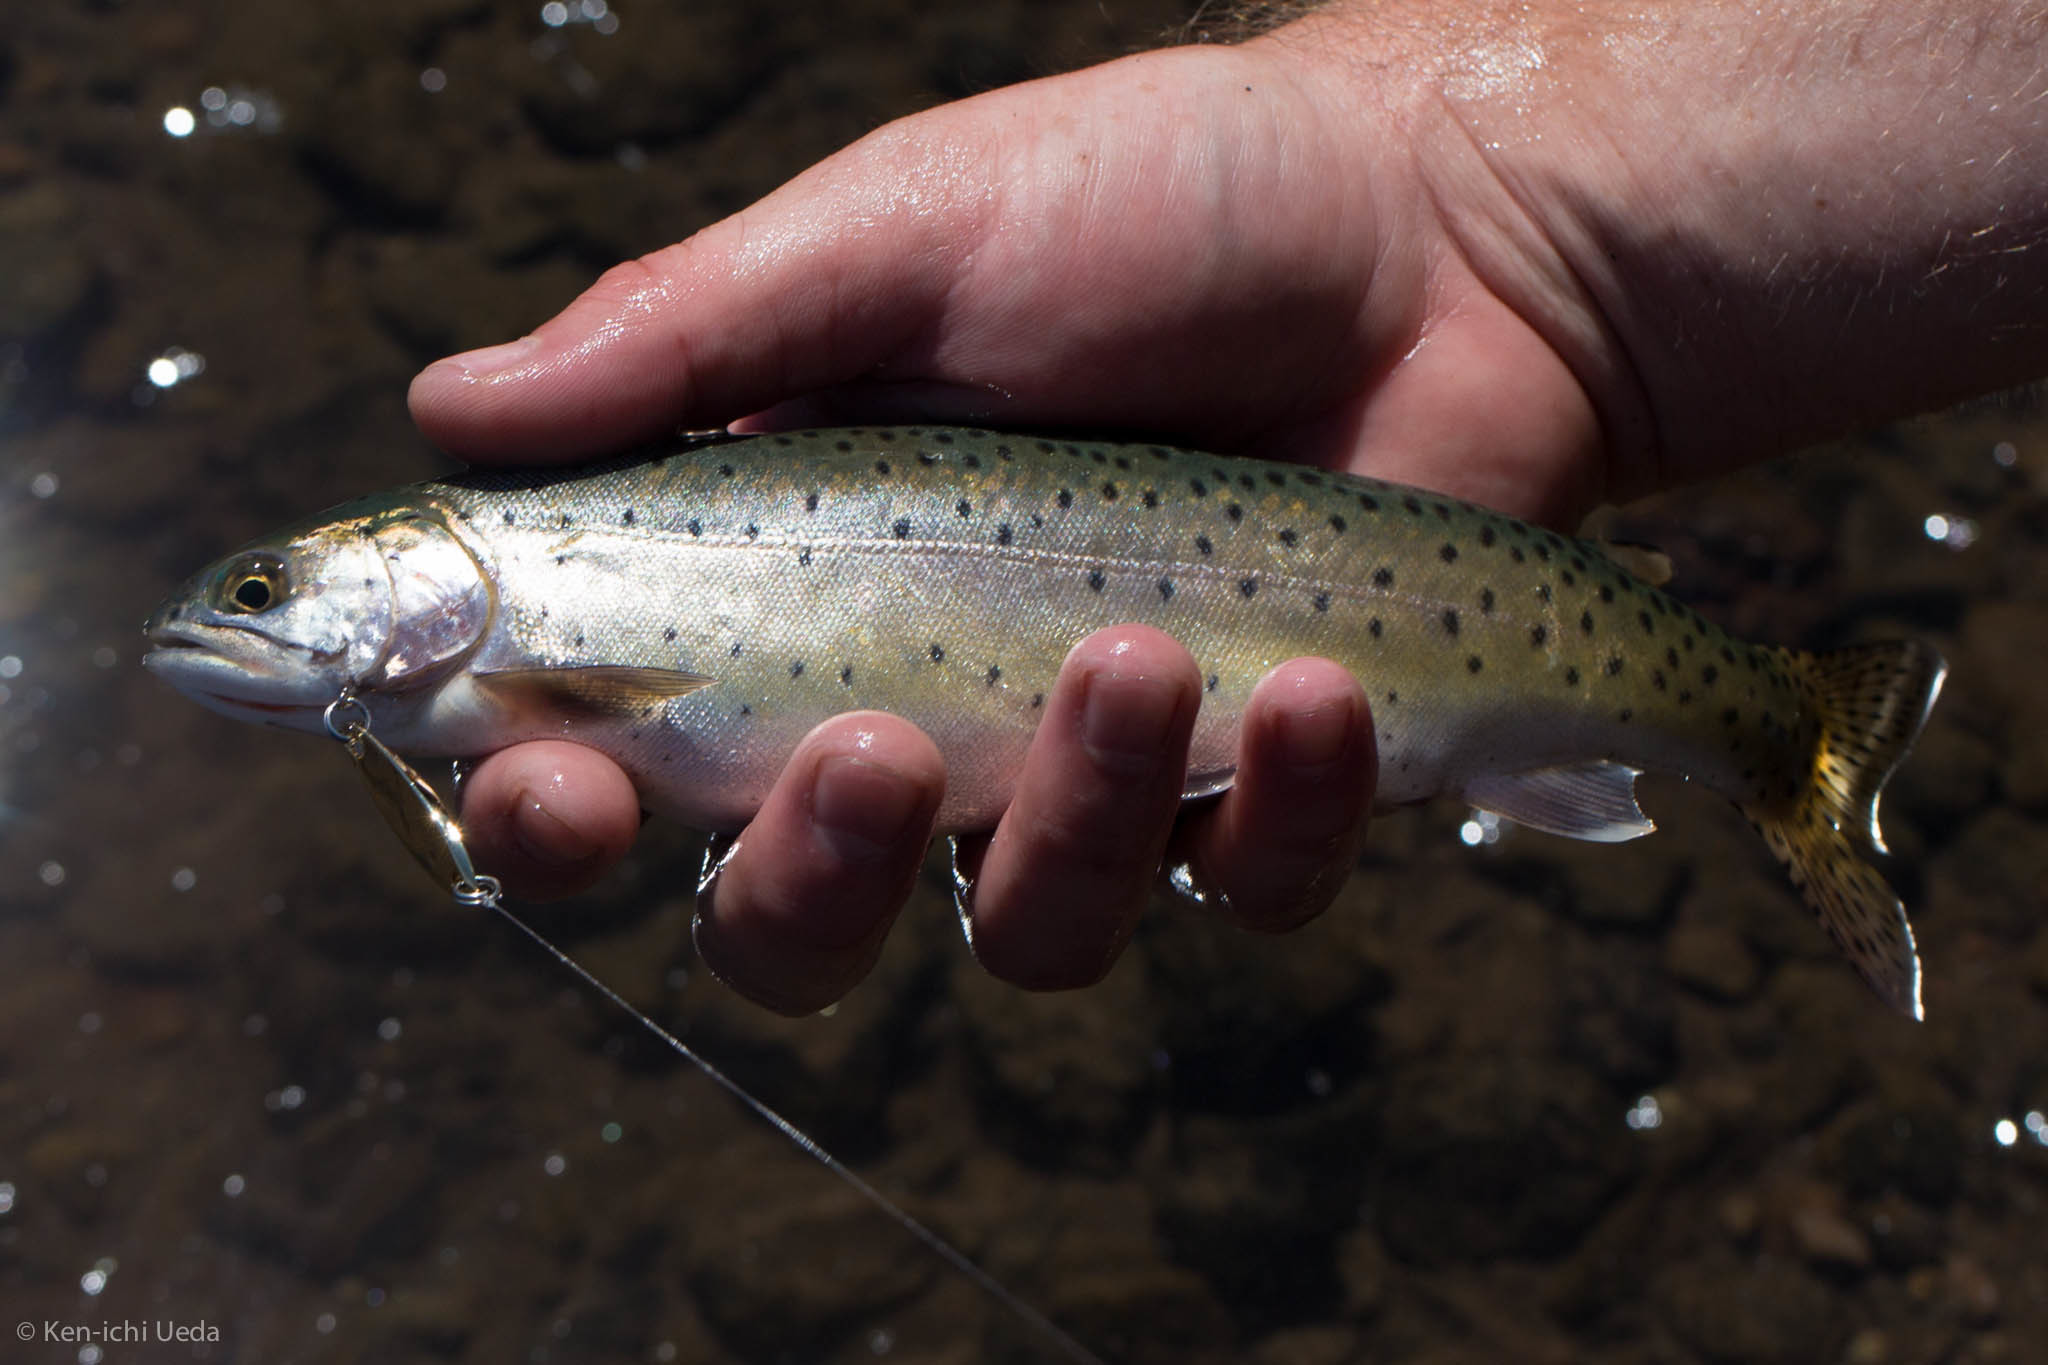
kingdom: Animalia
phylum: Chordata
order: Salmoniformes
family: Salmonidae
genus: Oncorhynchus
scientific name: Oncorhynchus henshawi
